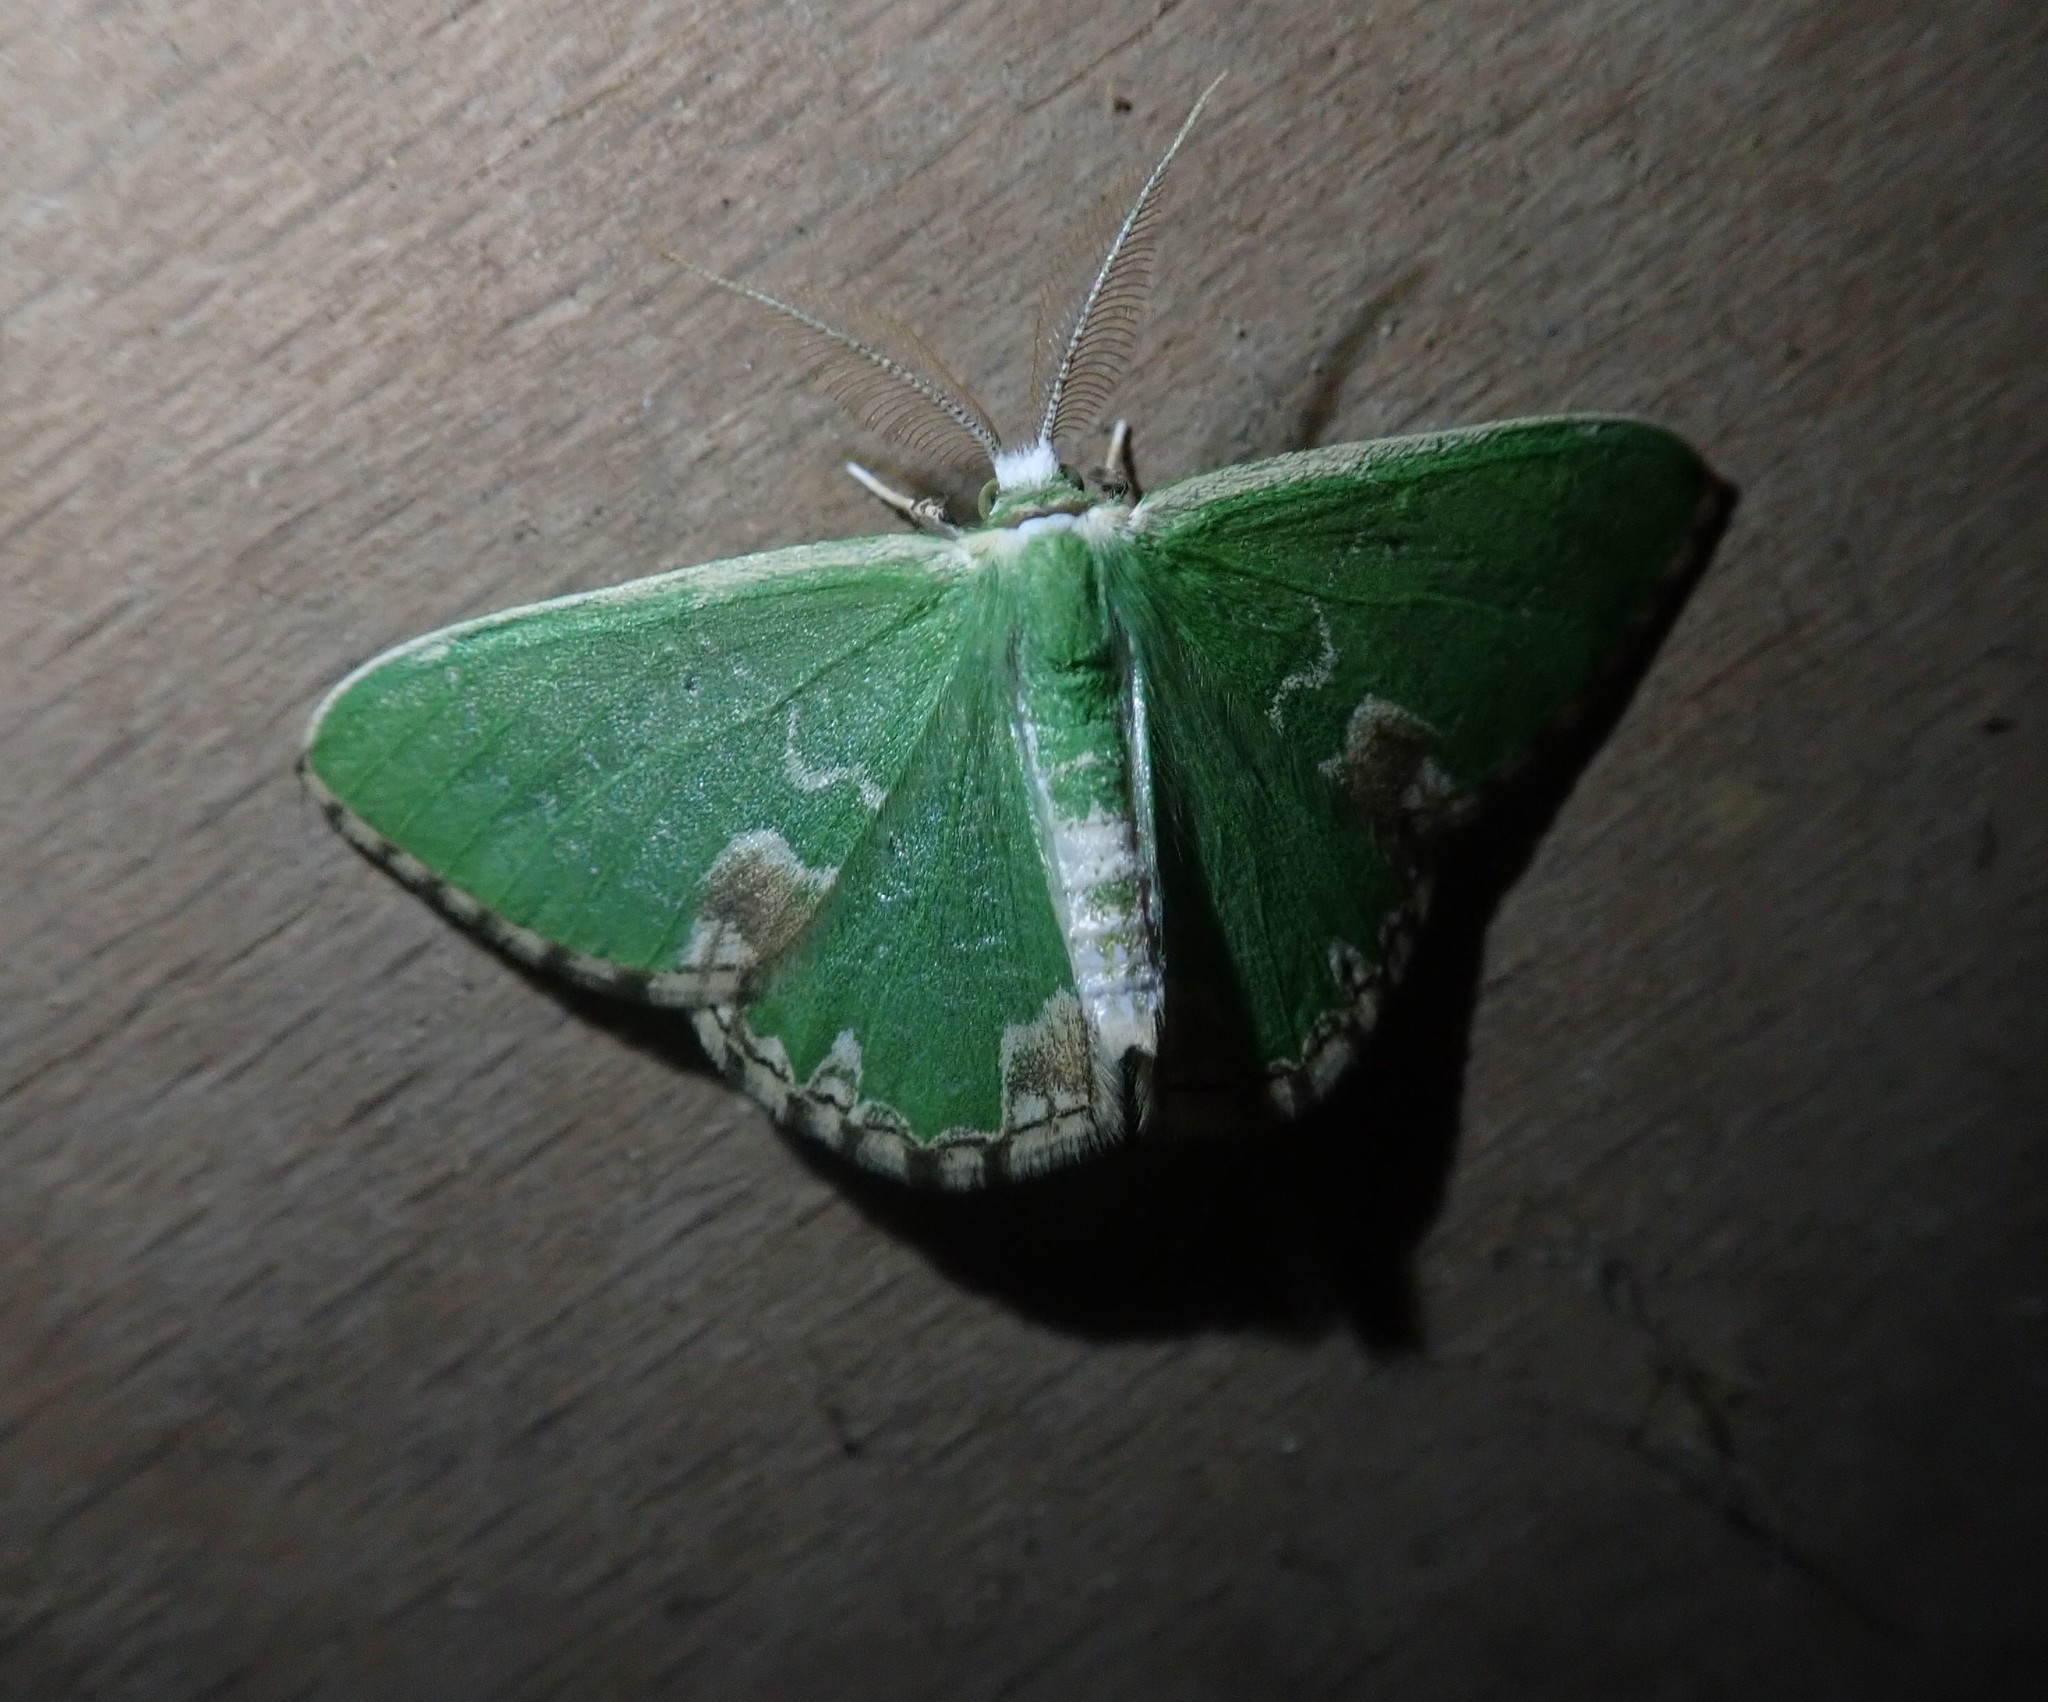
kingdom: Animalia
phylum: Arthropoda
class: Insecta
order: Lepidoptera
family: Geometridae
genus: Comibaena
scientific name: Comibaena bajularia
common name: Blotched emerald
